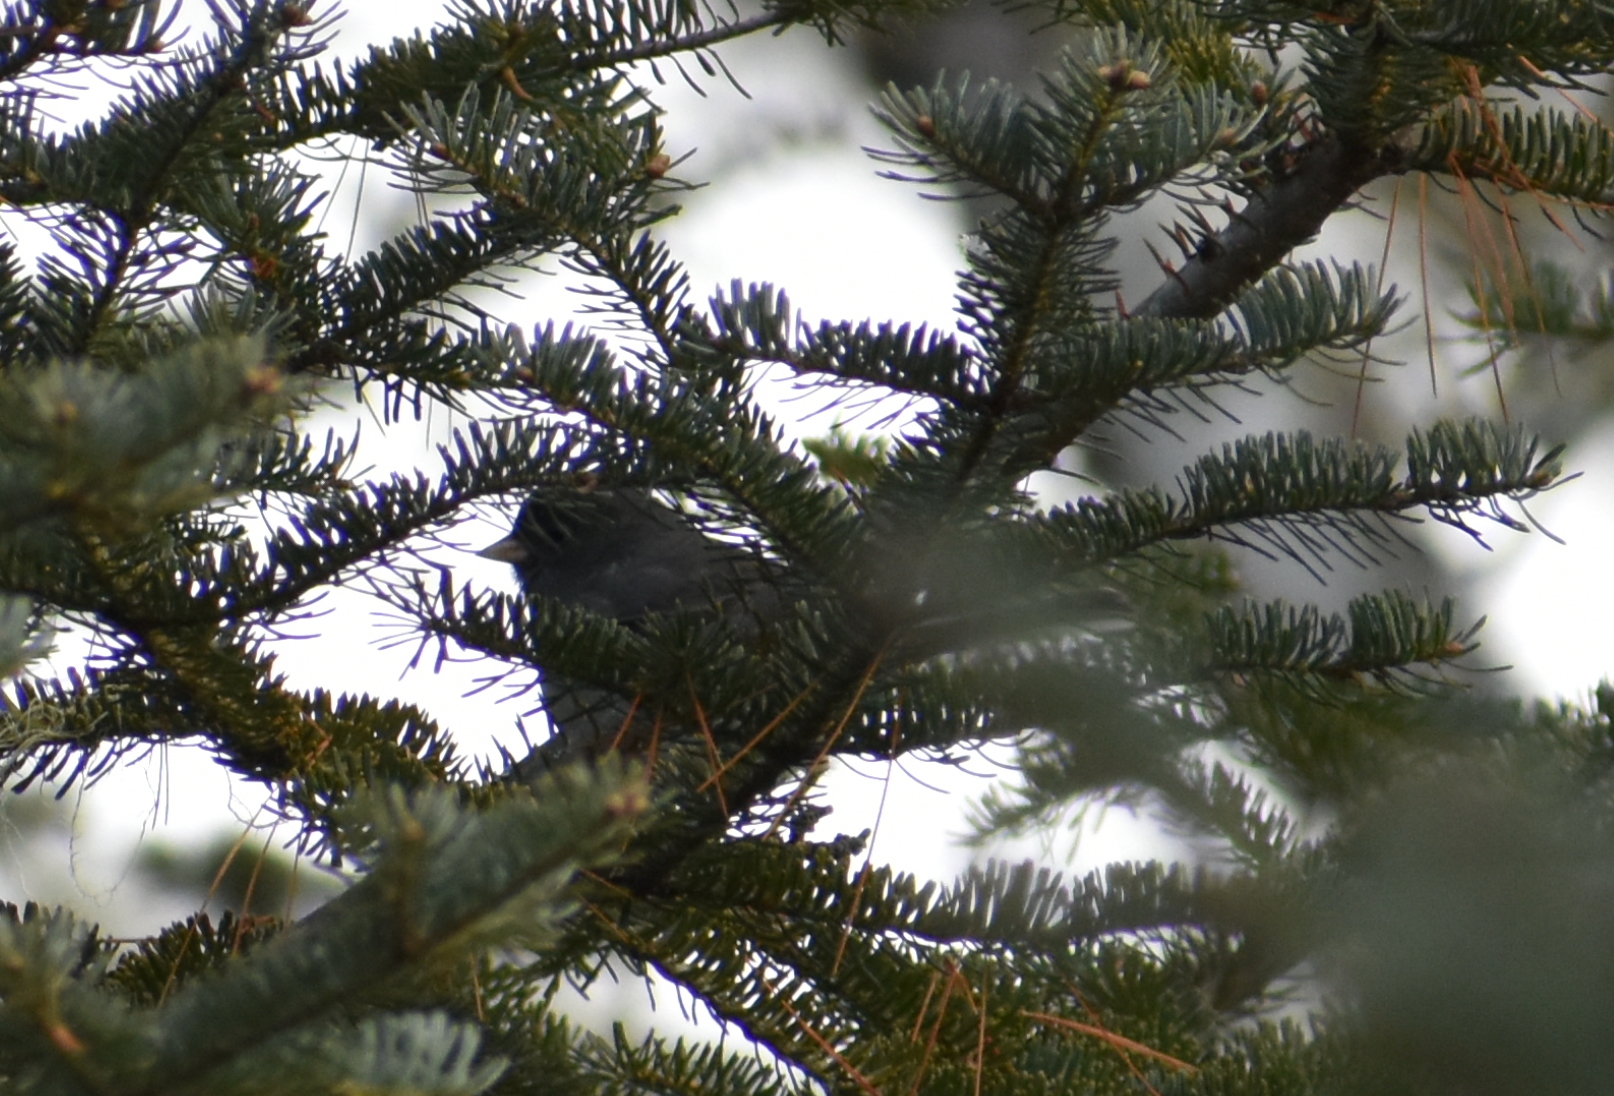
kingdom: Animalia
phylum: Chordata
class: Aves
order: Passeriformes
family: Passerellidae
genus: Junco
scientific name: Junco hyemalis
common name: Dark-eyed junco
